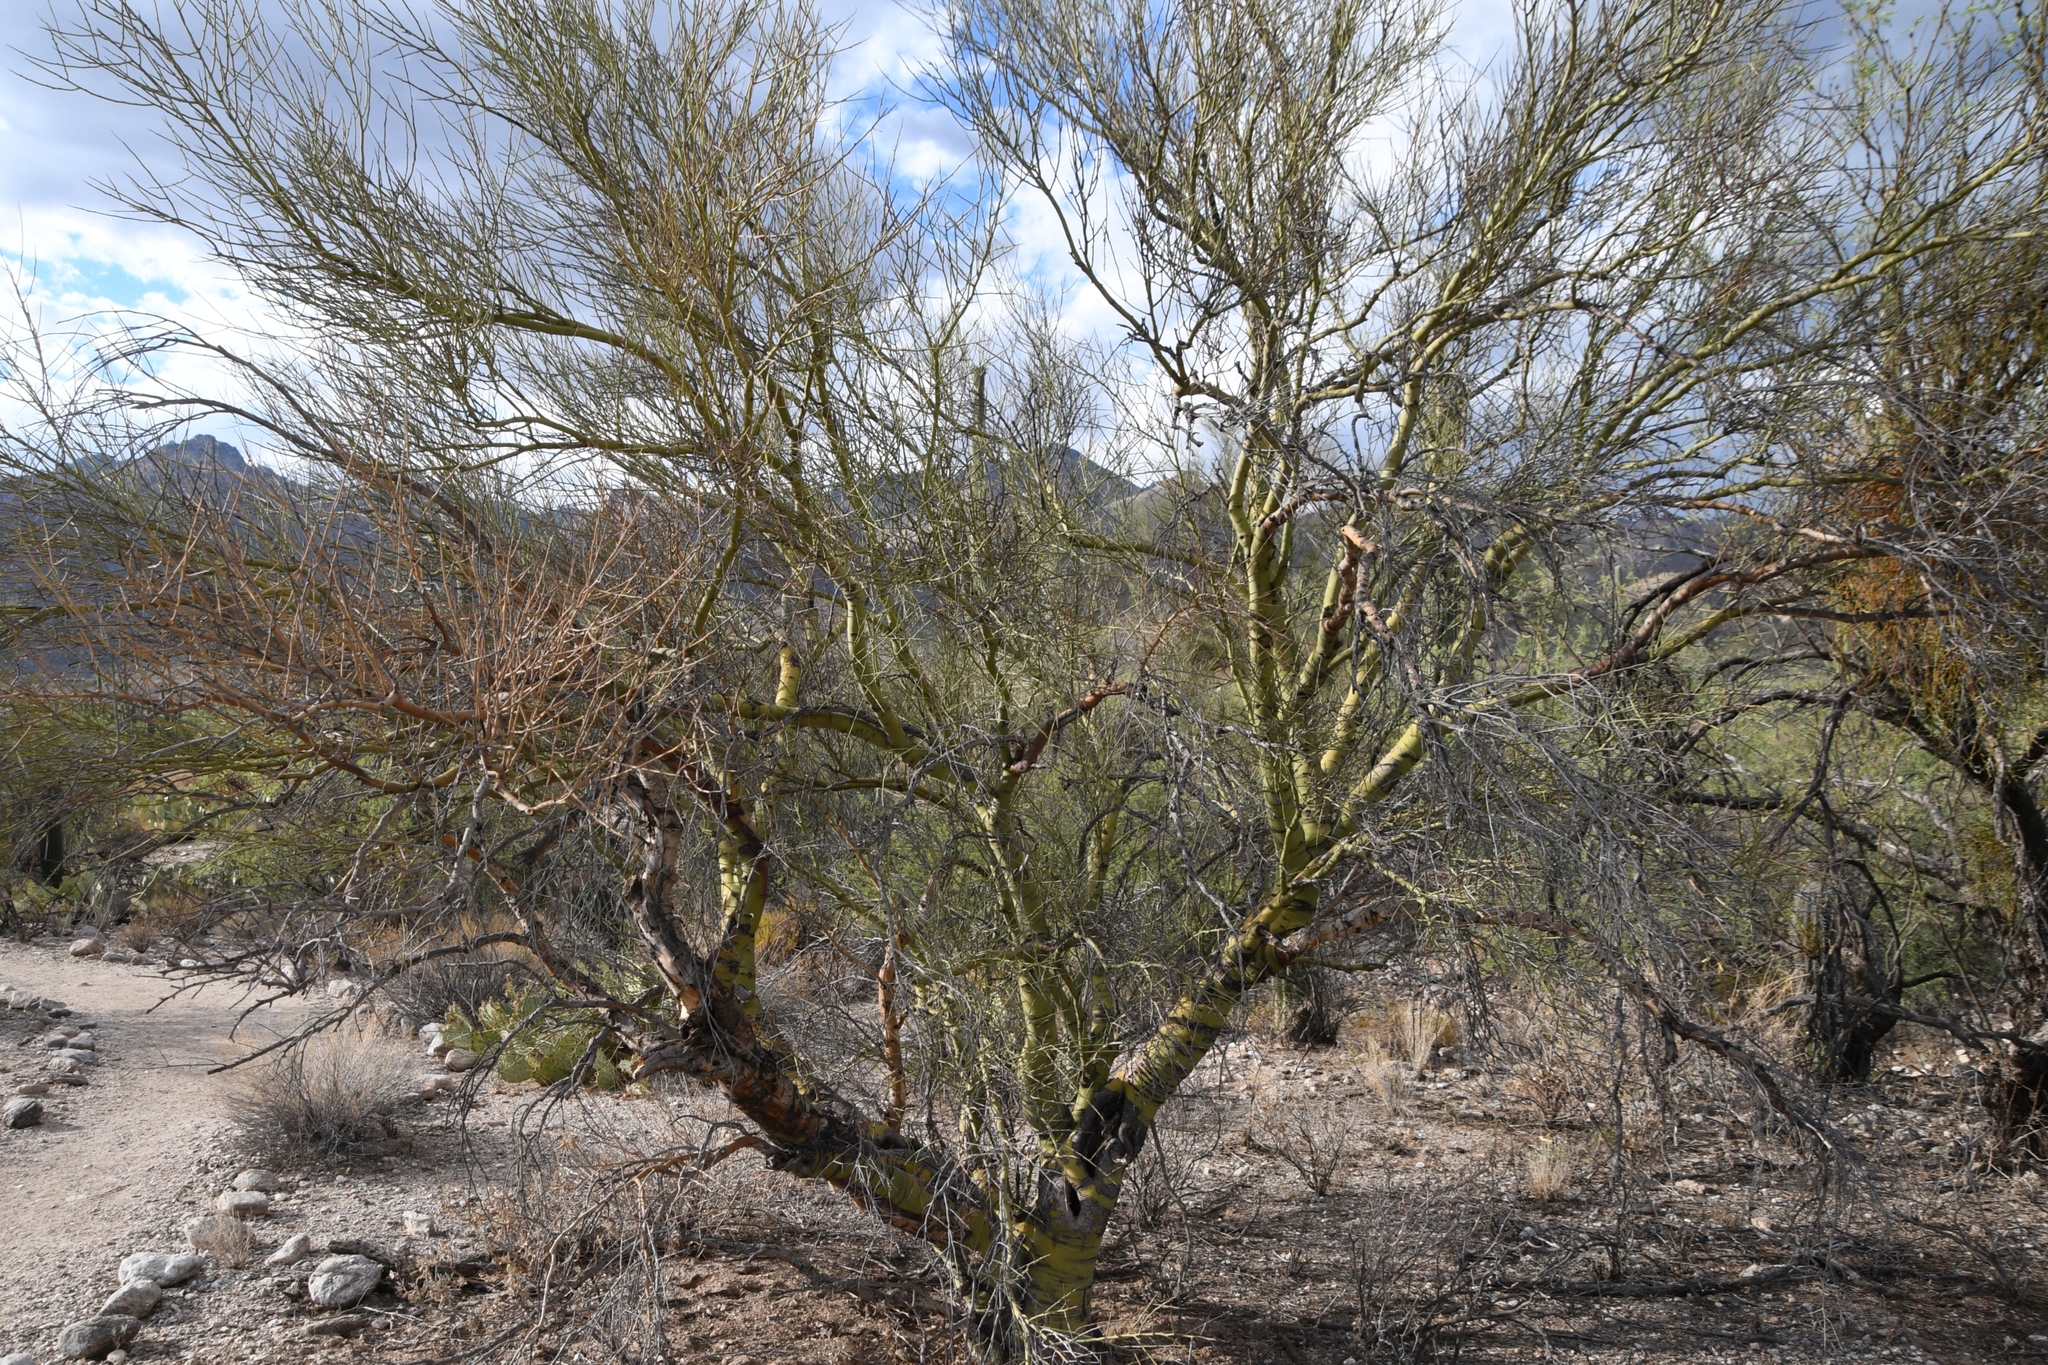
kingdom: Plantae
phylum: Tracheophyta
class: Magnoliopsida
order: Fabales
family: Fabaceae
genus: Parkinsonia
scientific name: Parkinsonia microphylla
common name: Yellow paloverde
